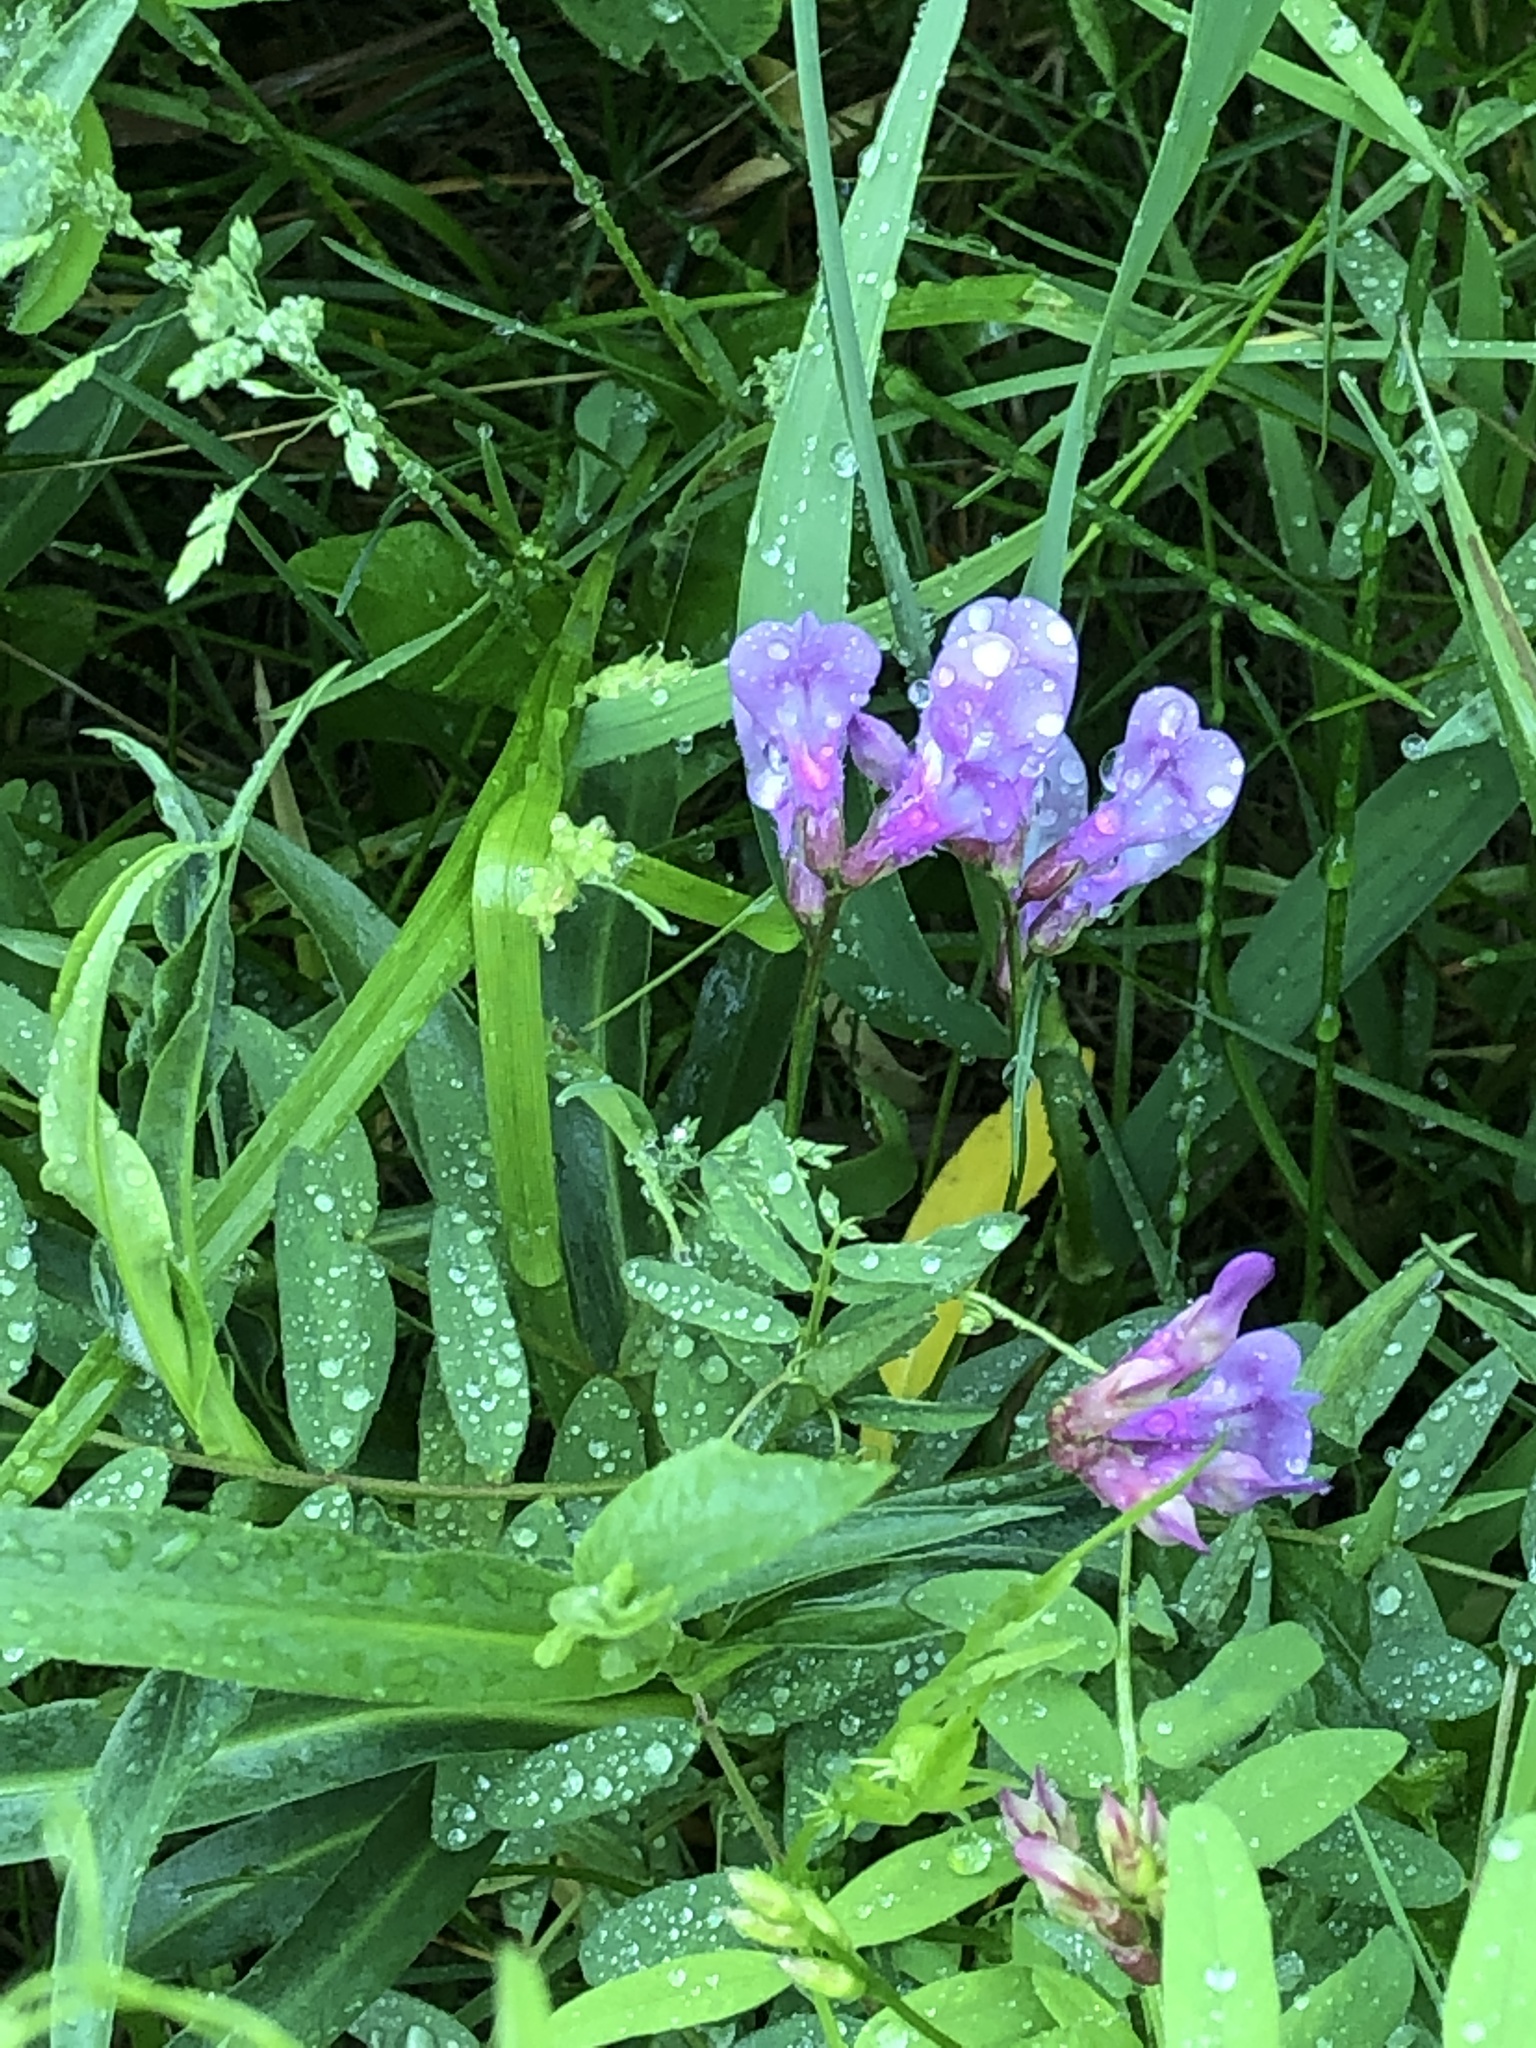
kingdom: Plantae
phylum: Tracheophyta
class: Magnoliopsida
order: Fabales
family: Fabaceae
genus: Vicia
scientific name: Vicia americana
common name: American vetch
